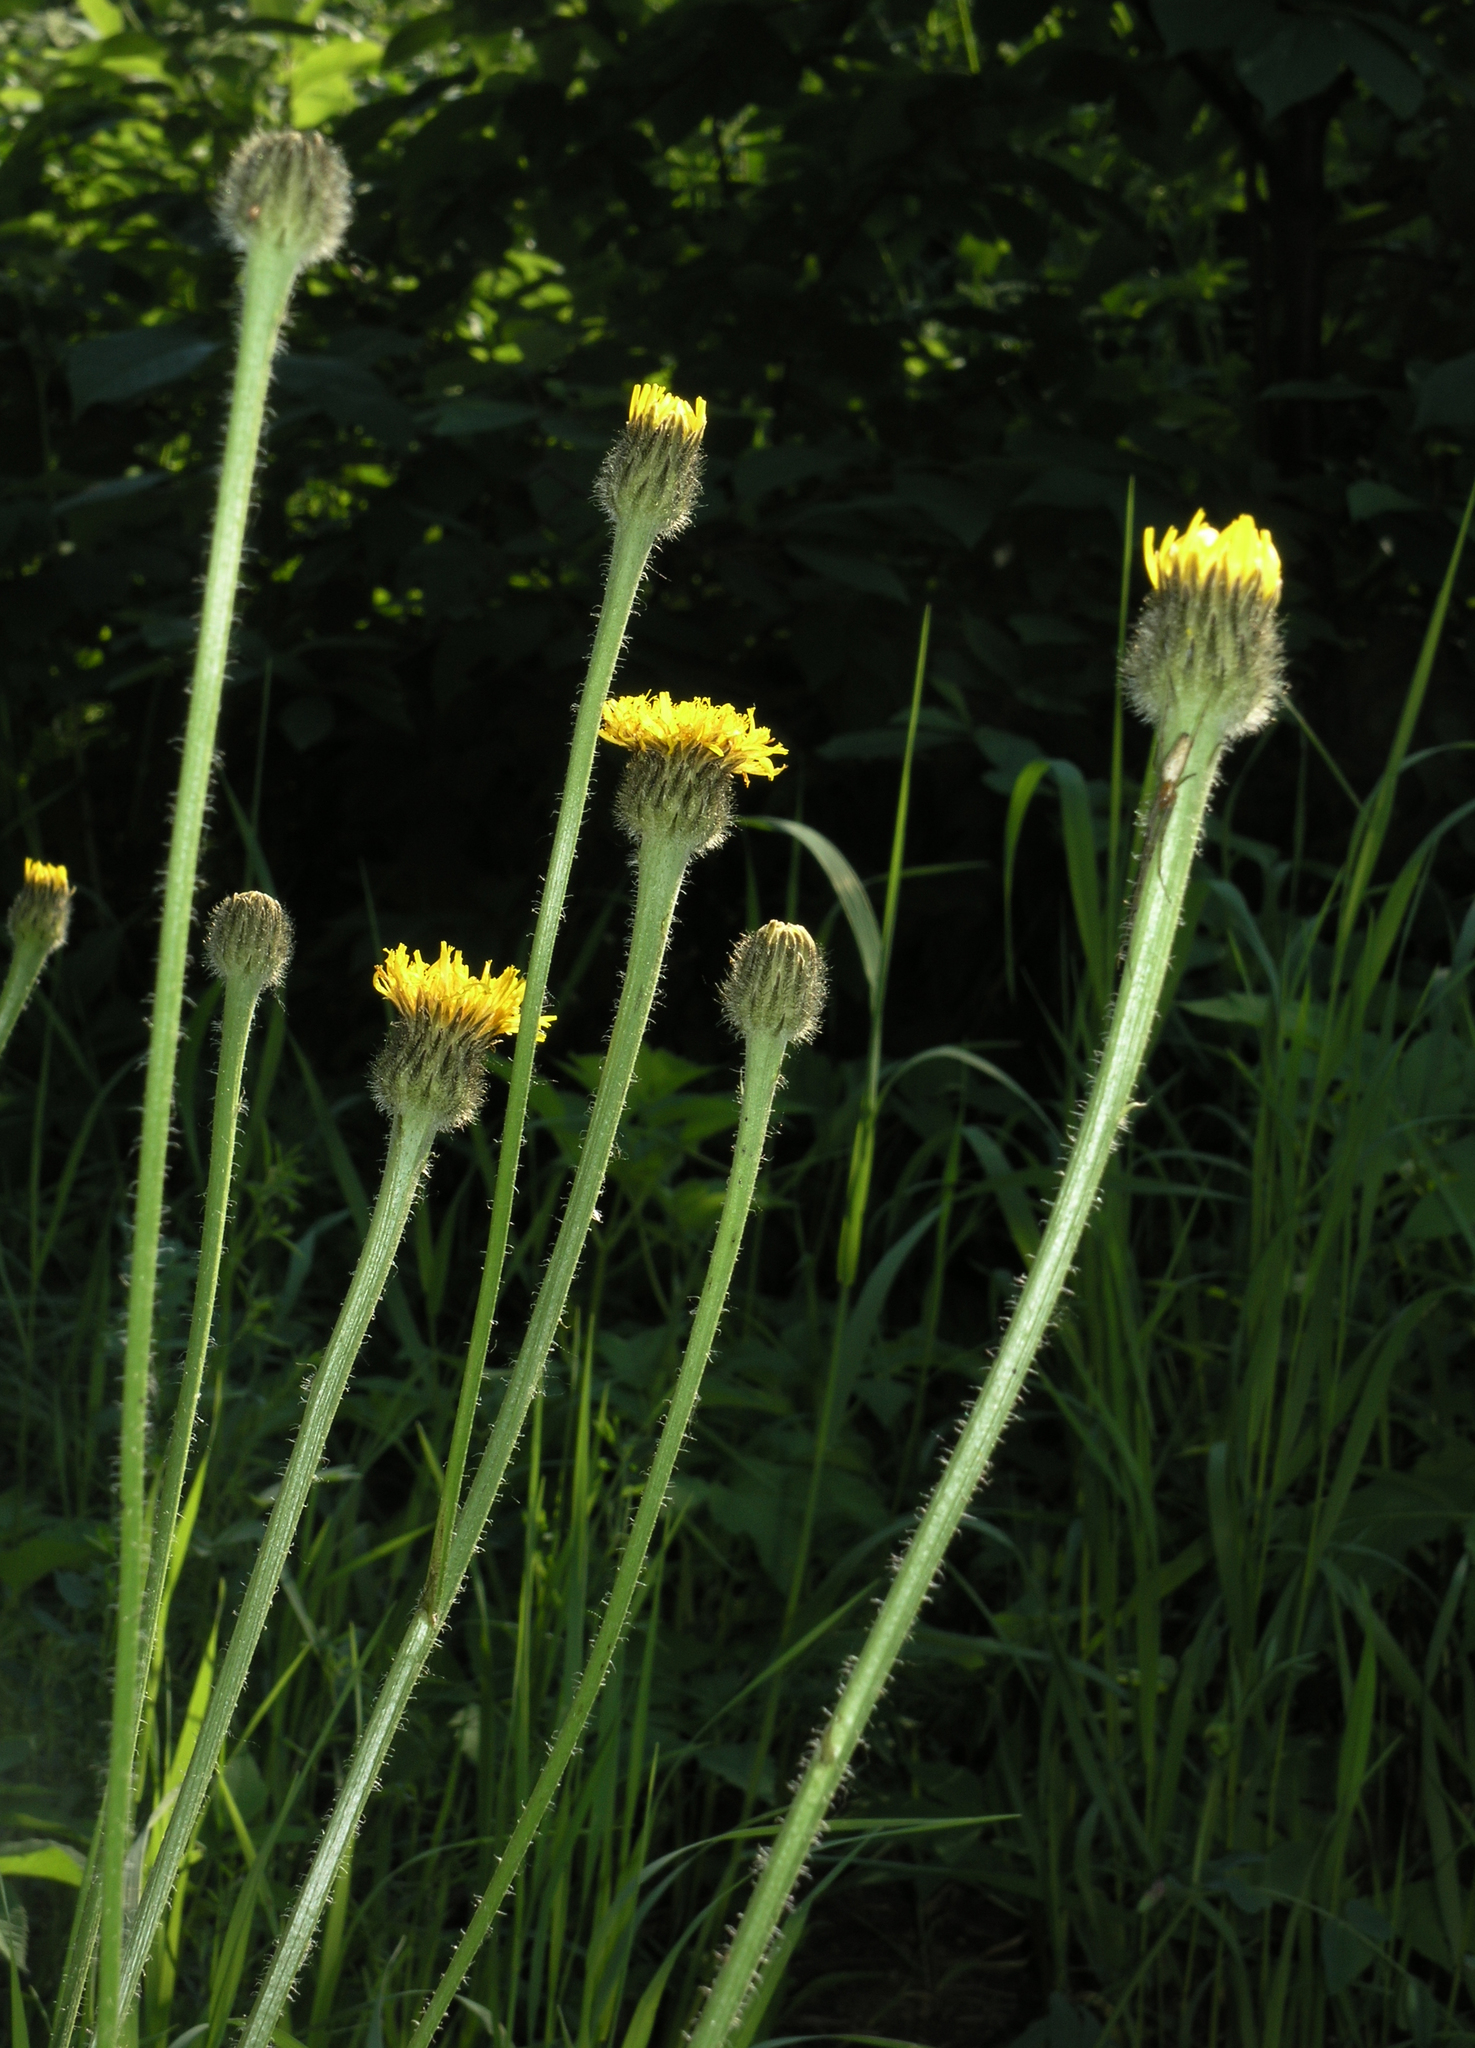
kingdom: Plantae
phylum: Tracheophyta
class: Magnoliopsida
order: Asterales
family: Asteraceae
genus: Trommsdorffia
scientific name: Trommsdorffia maculata
